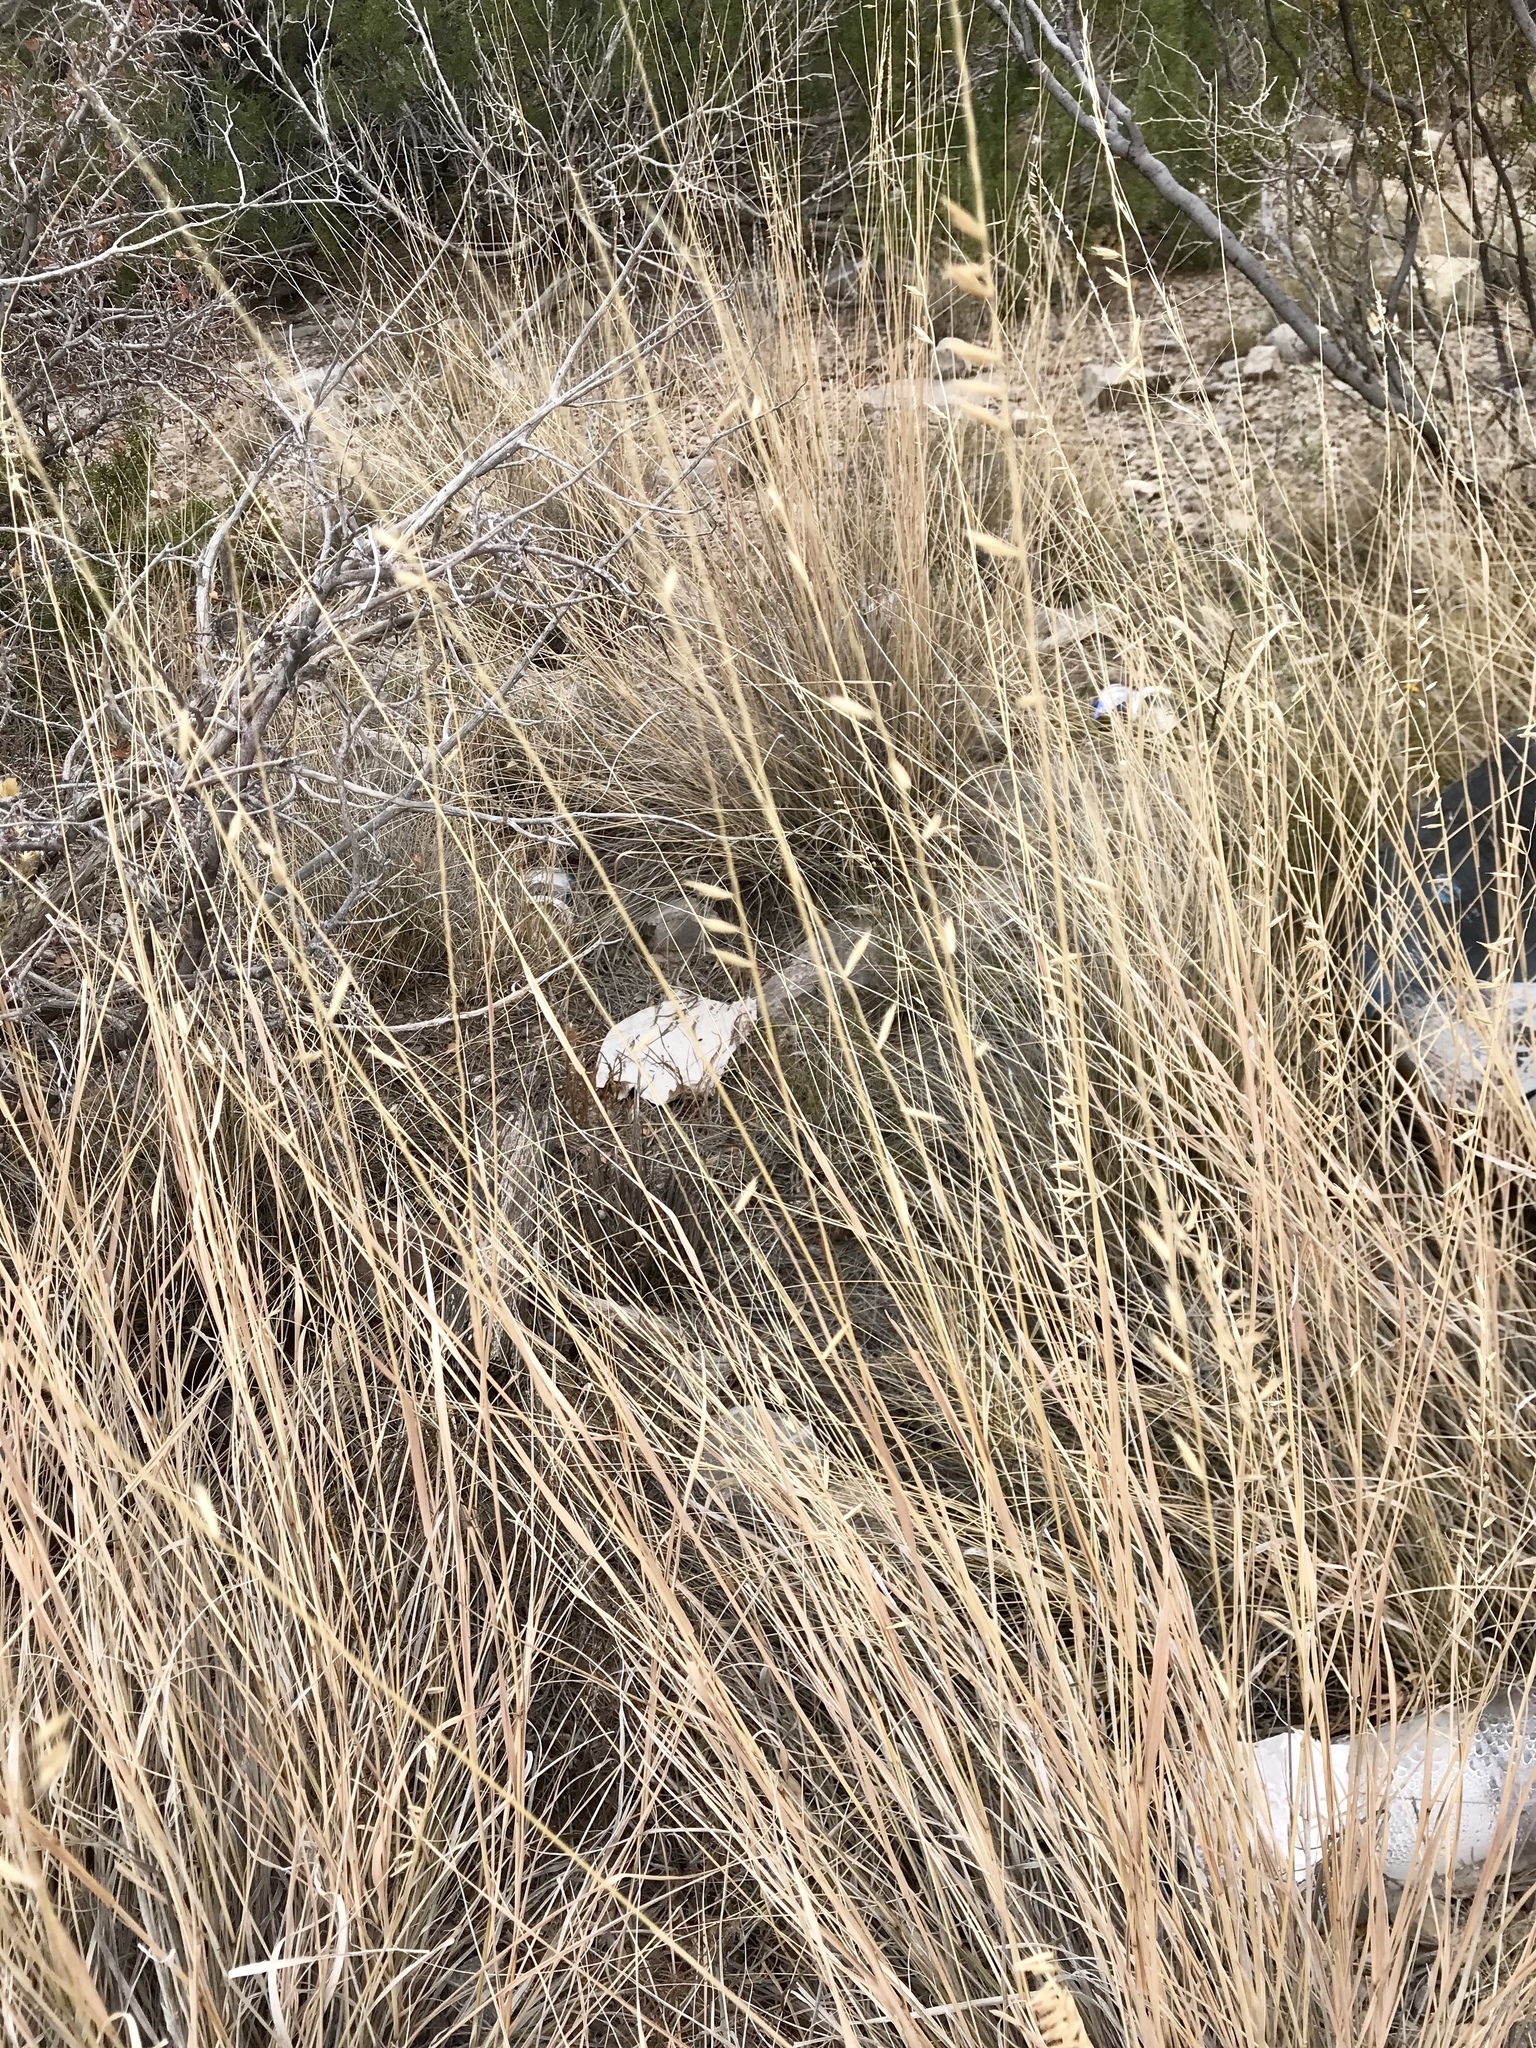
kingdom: Plantae
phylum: Tracheophyta
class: Liliopsida
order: Poales
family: Poaceae
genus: Bouteloua
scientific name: Bouteloua curtipendula
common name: Side-oats grama
